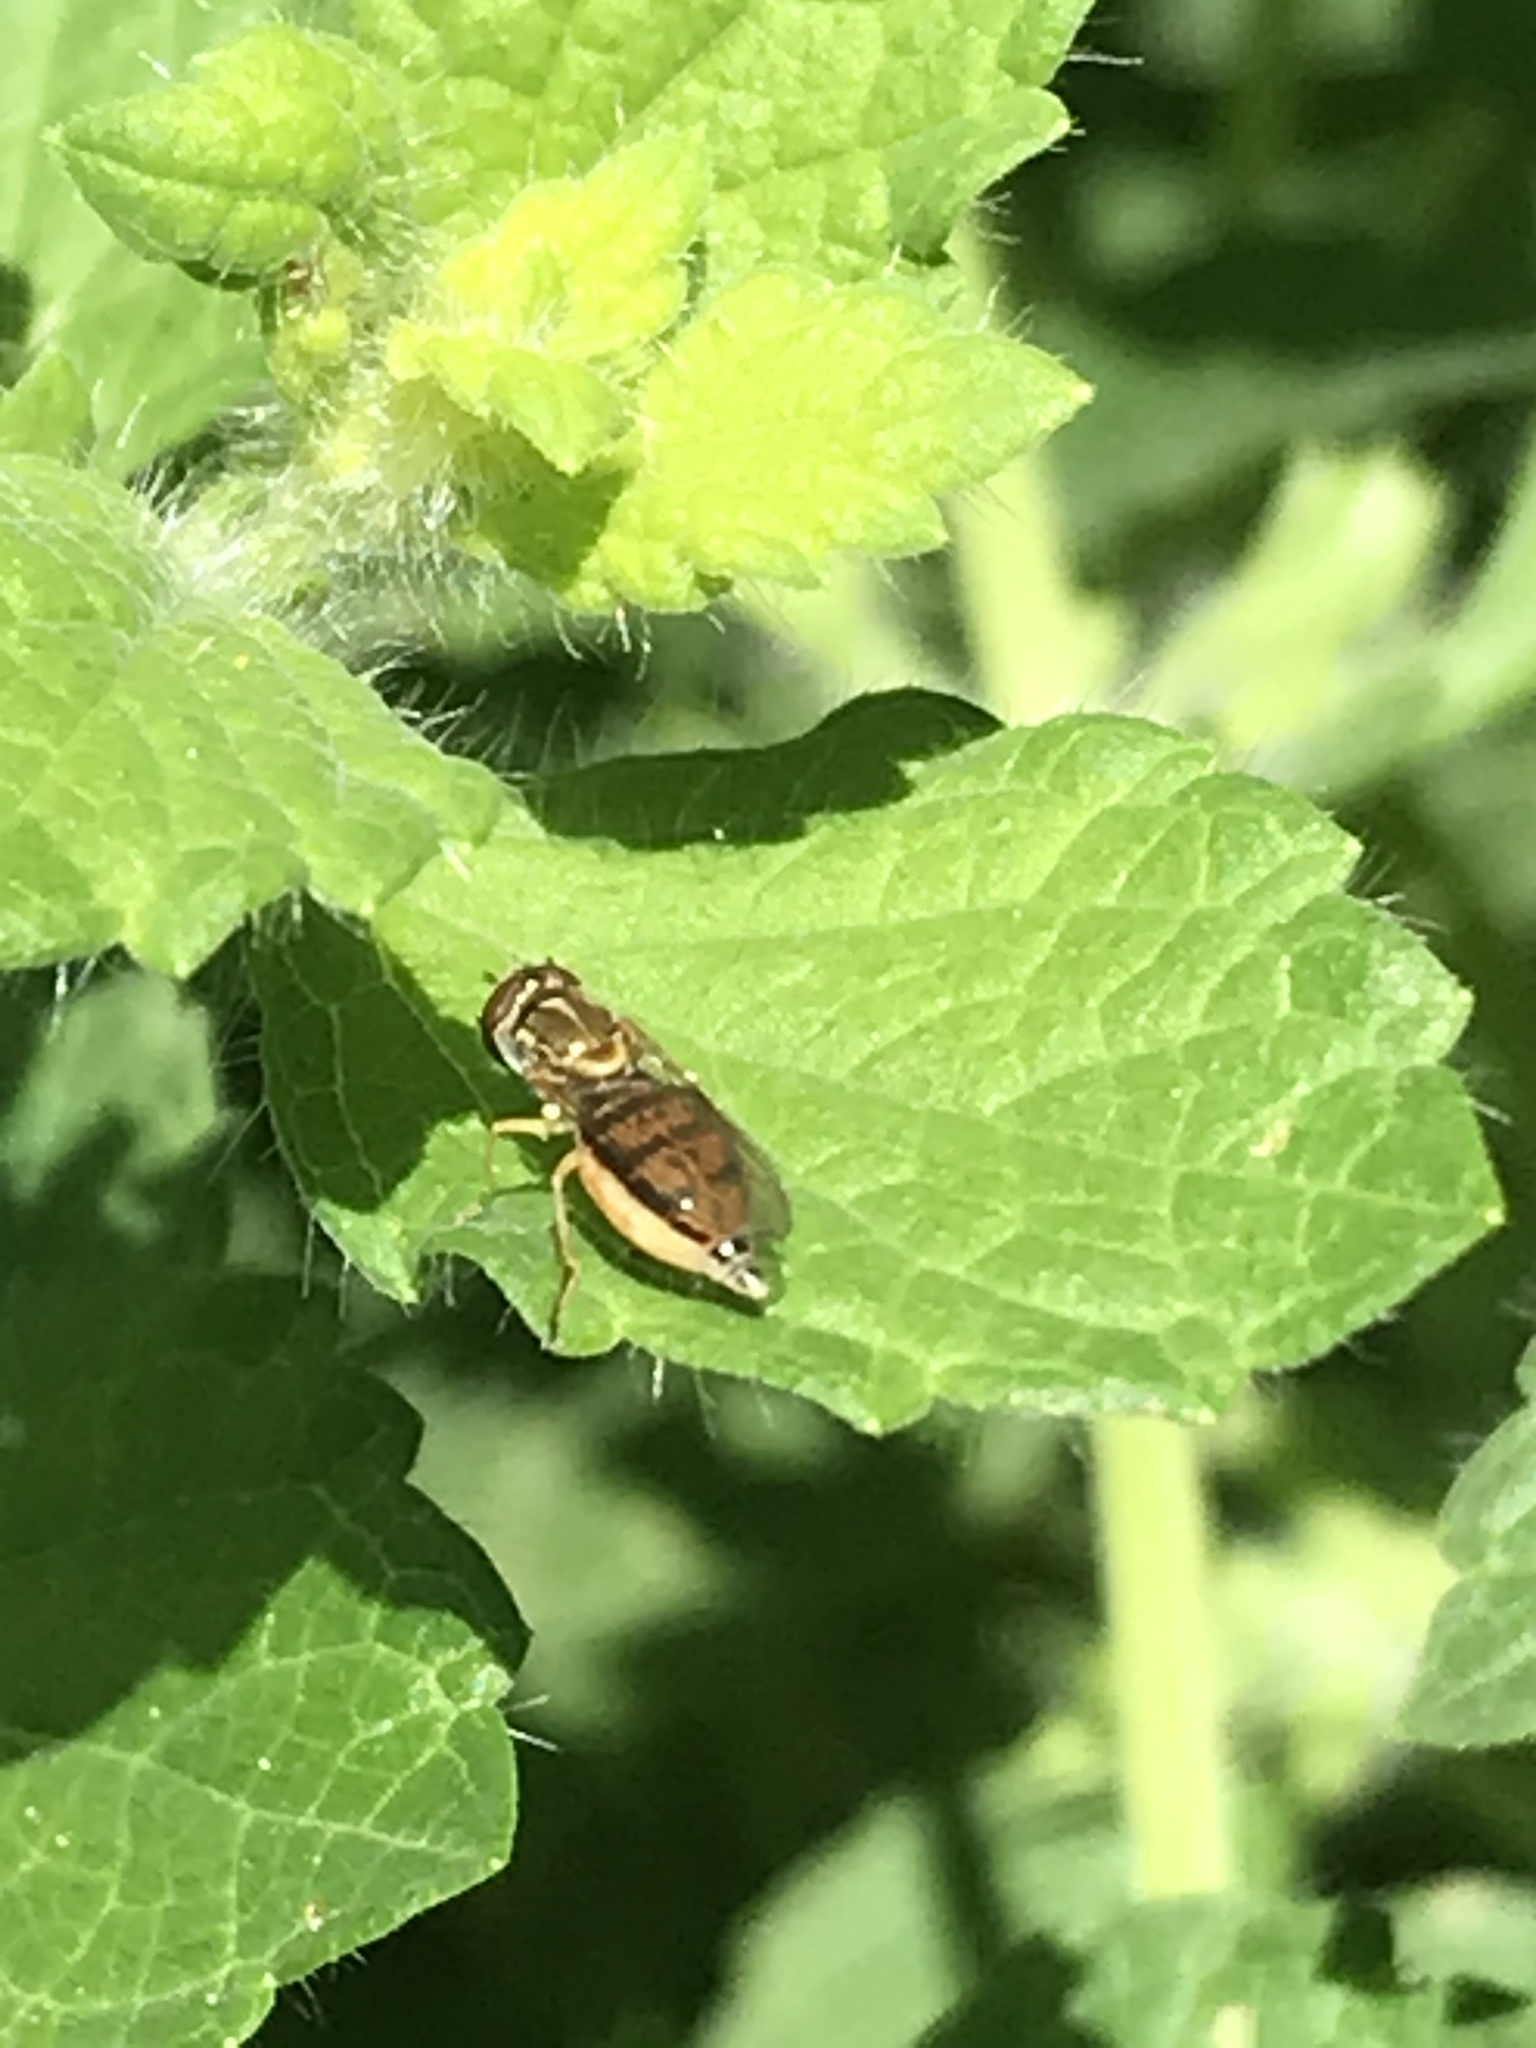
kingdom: Animalia
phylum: Arthropoda
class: Insecta
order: Diptera
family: Syrphidae
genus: Toxomerus
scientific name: Toxomerus marginatus
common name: Syrphid fly
